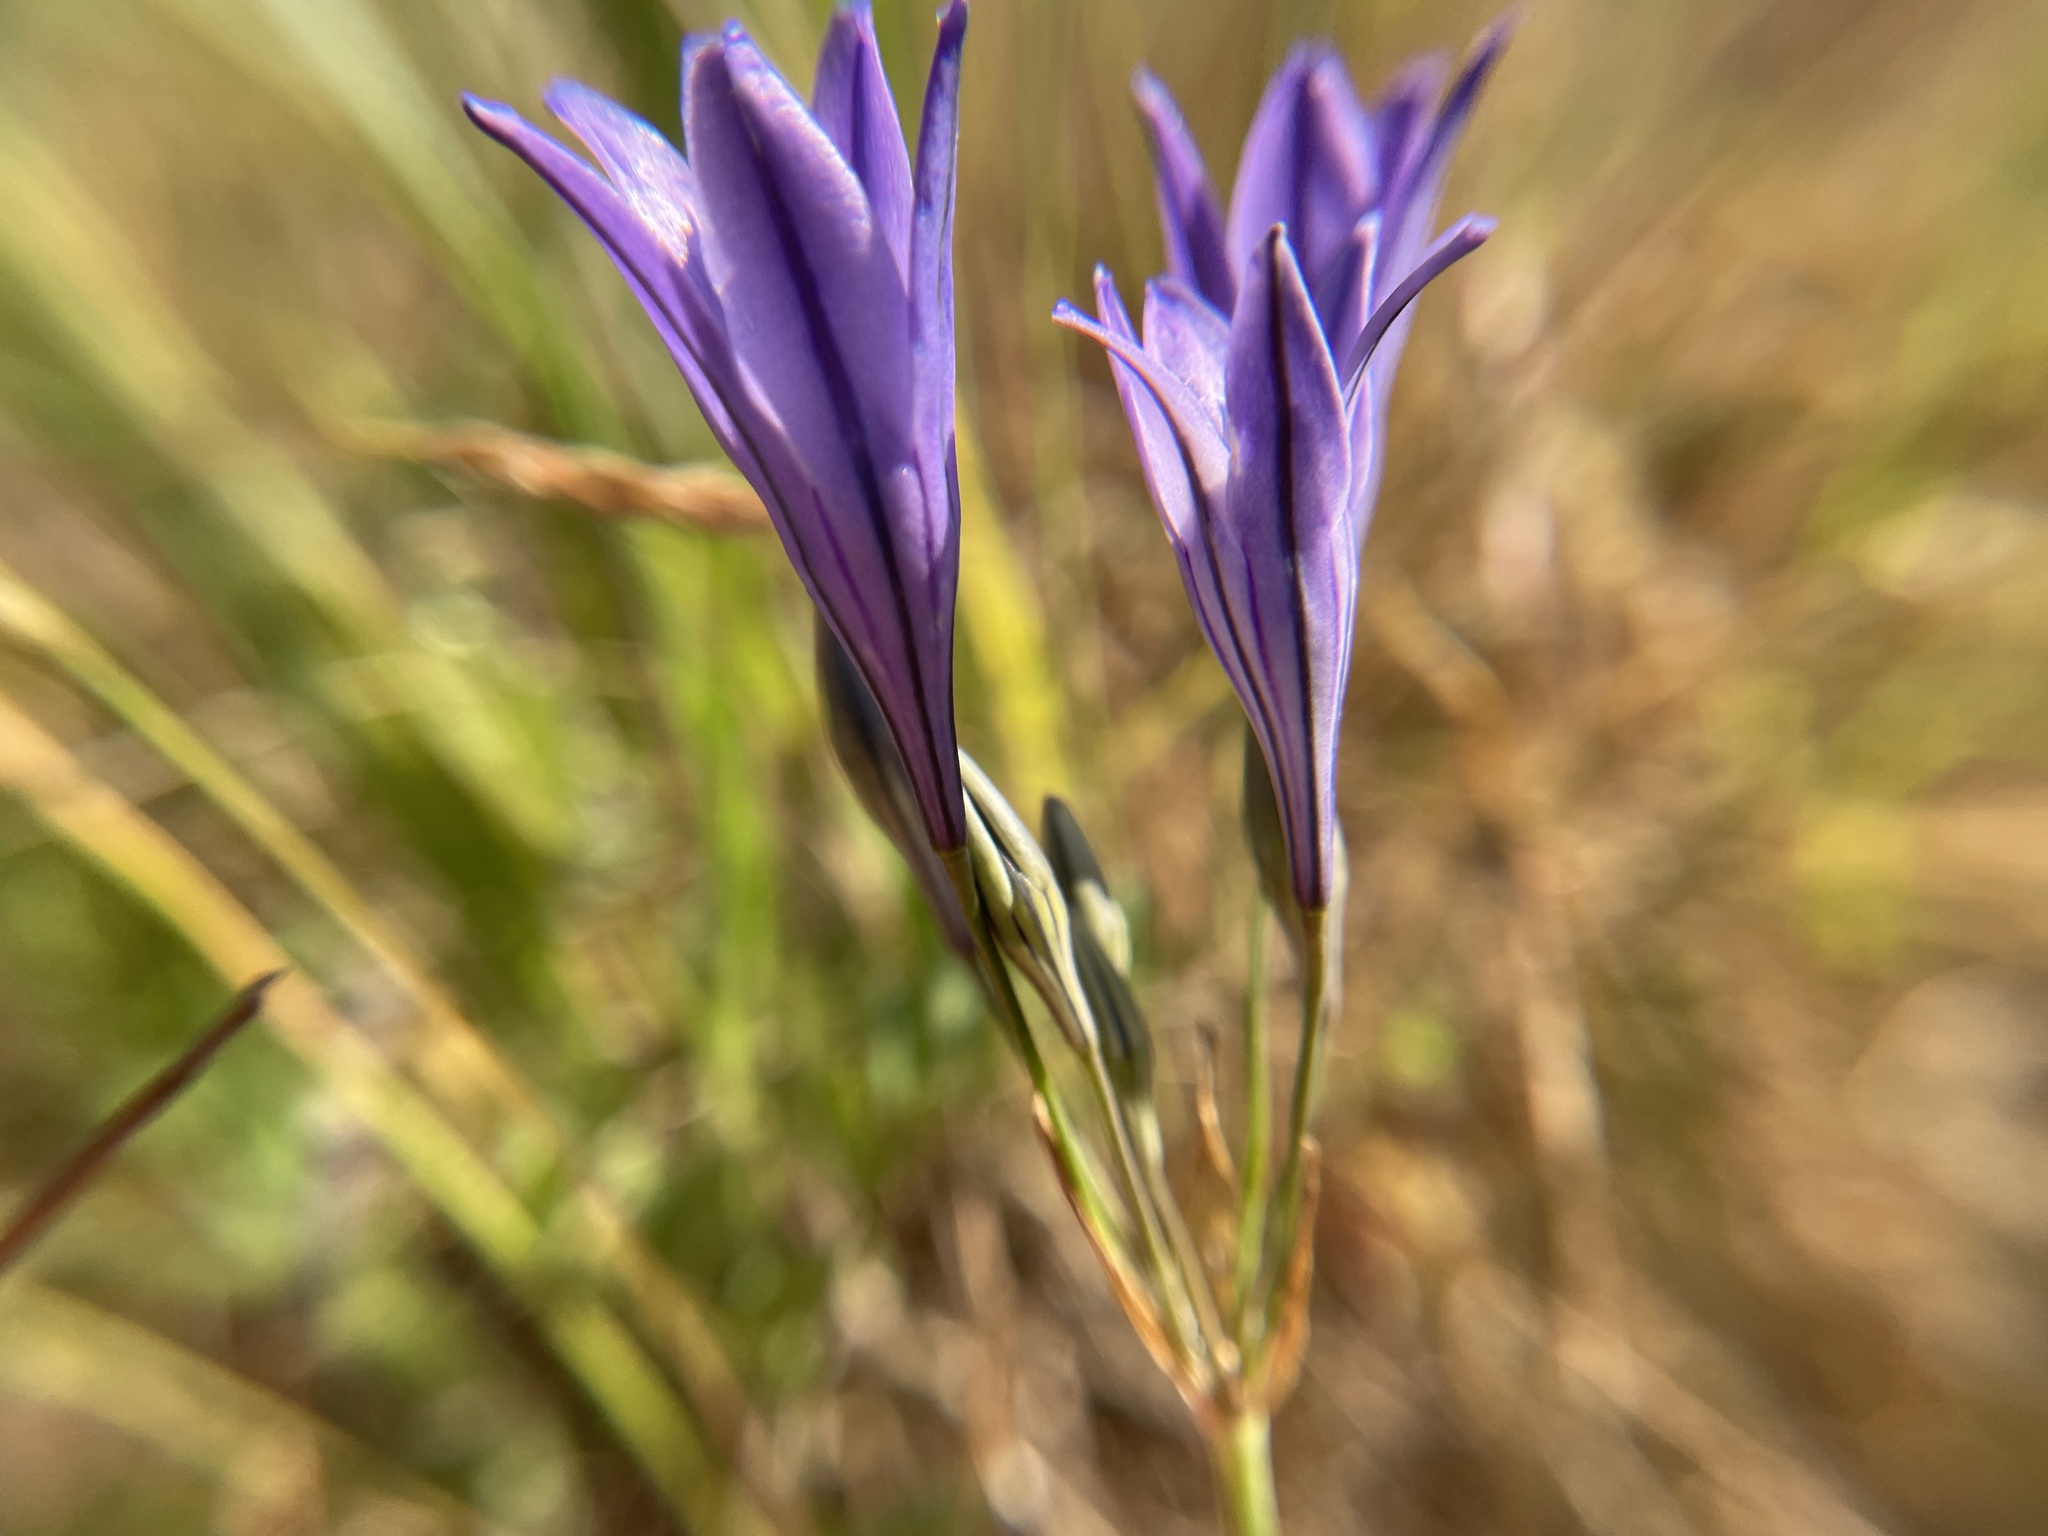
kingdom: Plantae
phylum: Tracheophyta
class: Liliopsida
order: Asparagales
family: Asparagaceae
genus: Triteleia
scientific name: Triteleia laxa
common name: Triplet-lily
